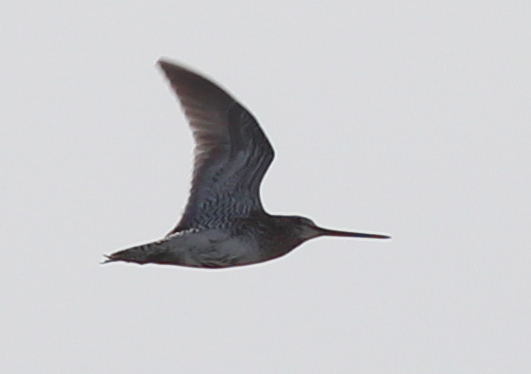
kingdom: Animalia
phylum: Chordata
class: Aves
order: Charadriiformes
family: Scolopacidae
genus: Gallinago
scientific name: Gallinago gallinago
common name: Common snipe
